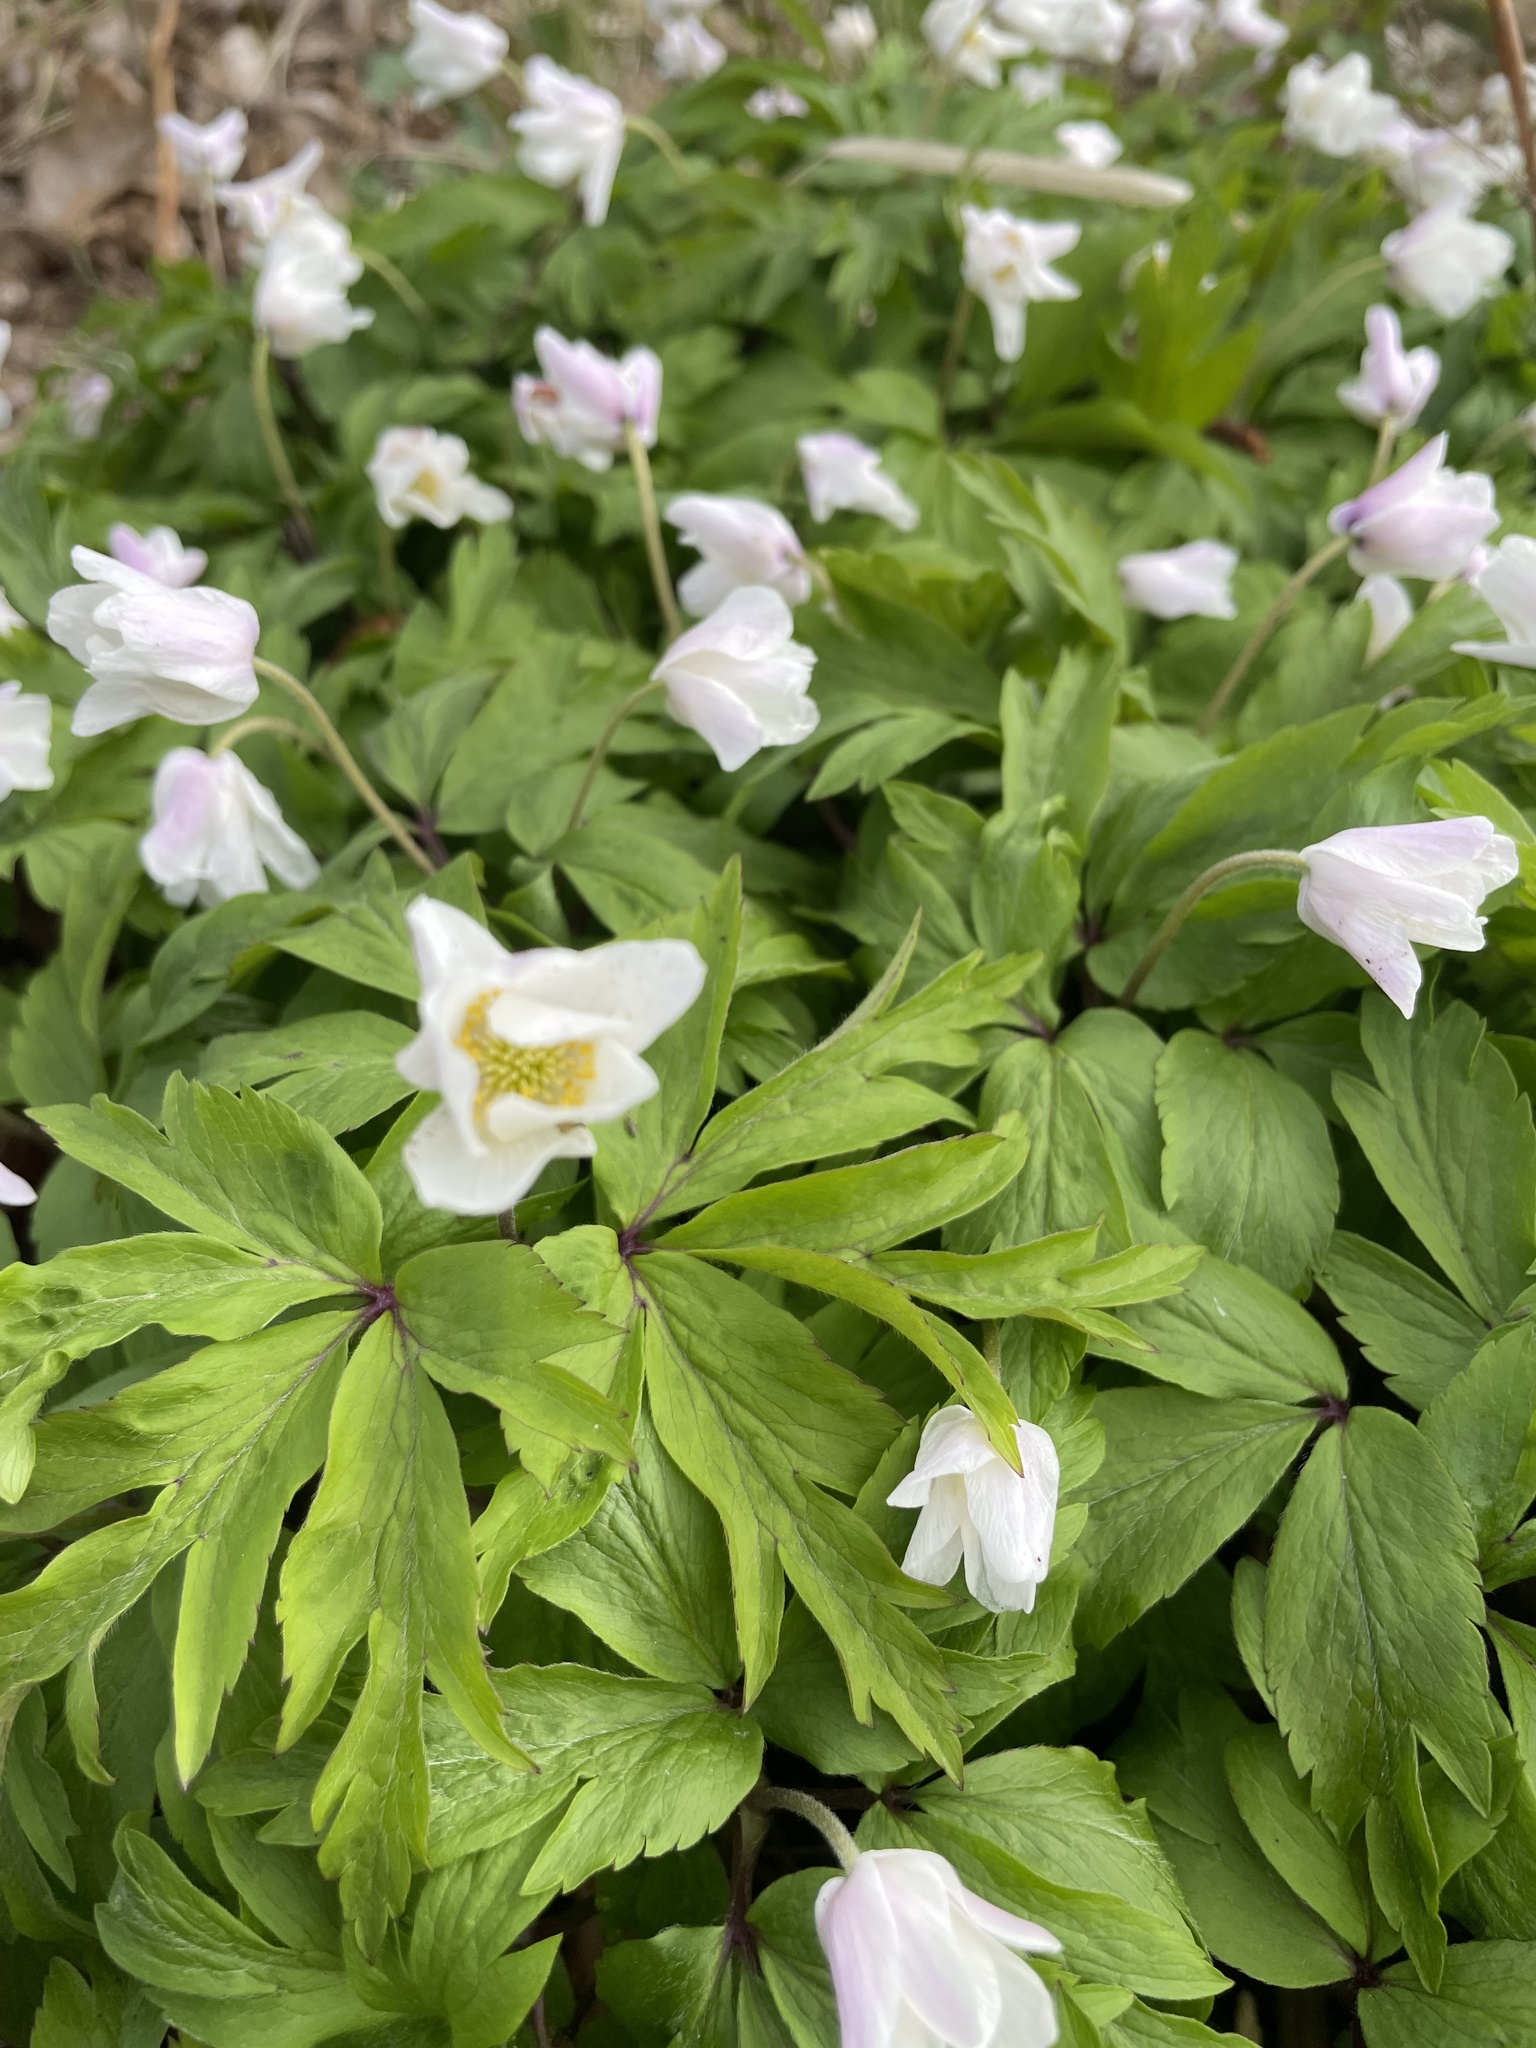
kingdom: Plantae
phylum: Tracheophyta
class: Magnoliopsida
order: Ranunculales
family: Ranunculaceae
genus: Anemone
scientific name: Anemone nemorosa
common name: Wood anemone
